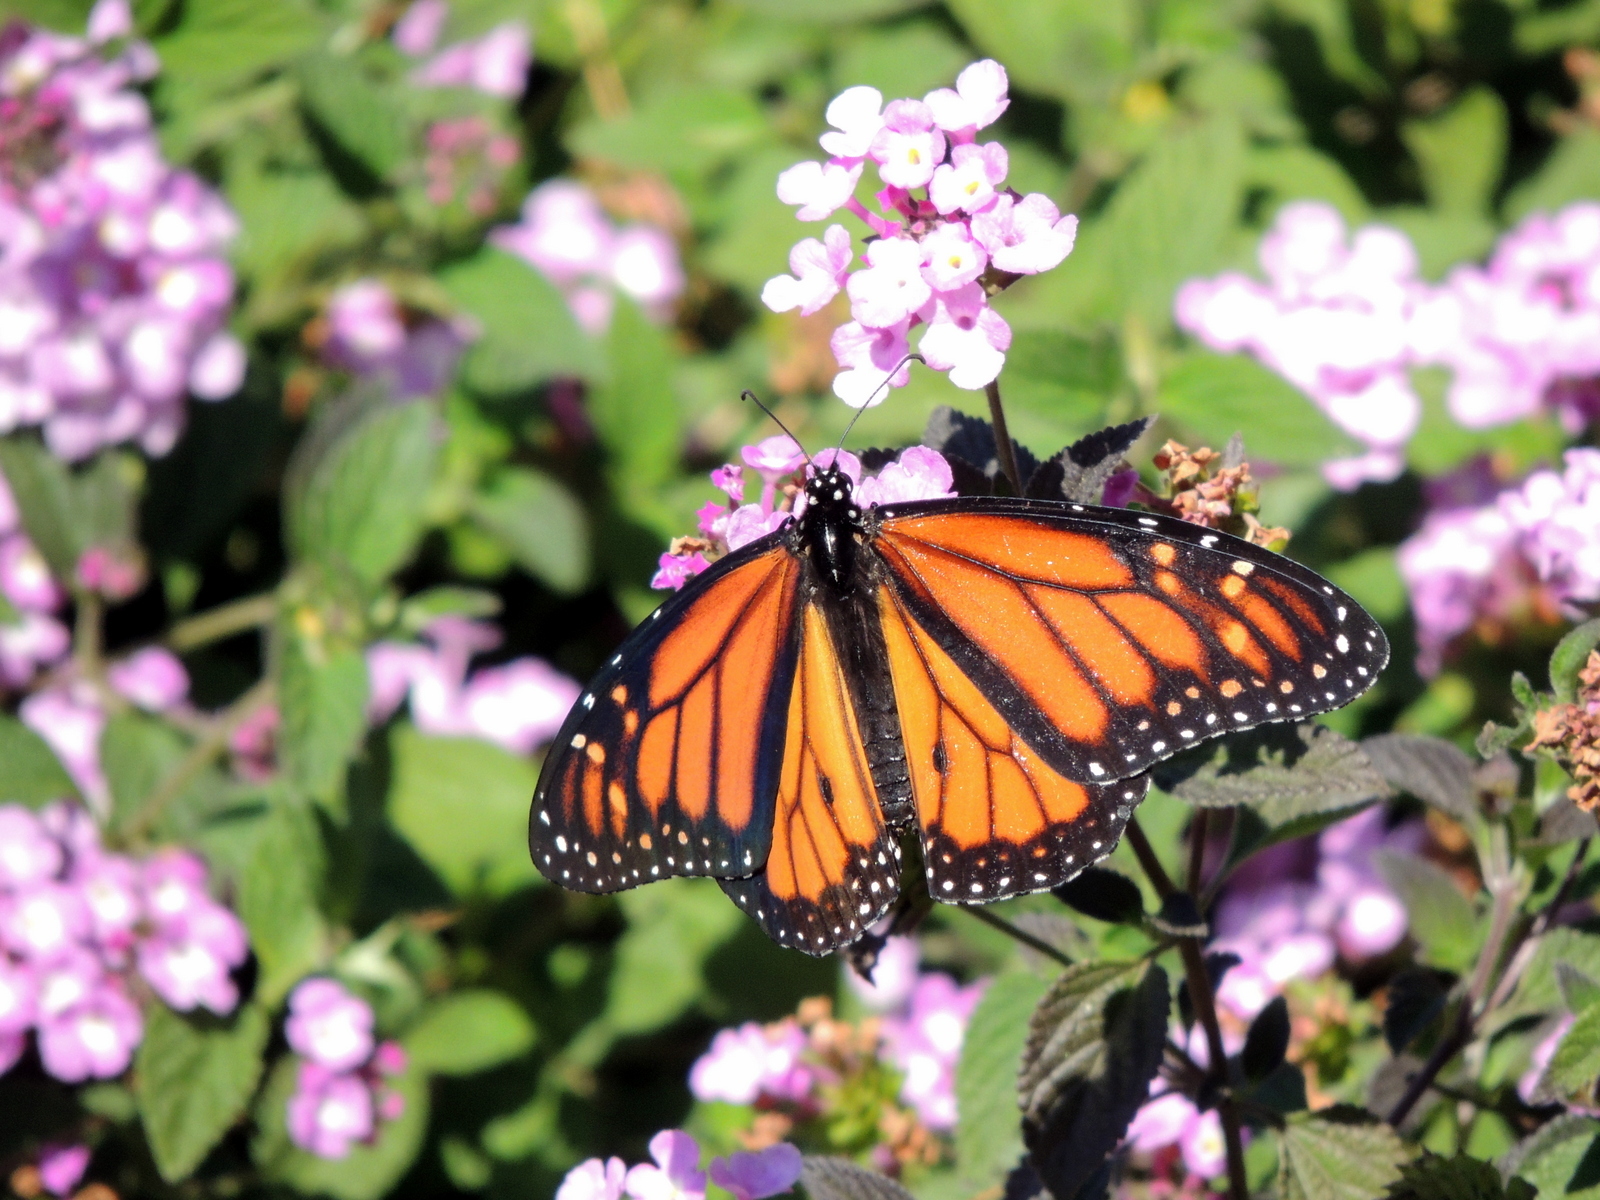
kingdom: Animalia
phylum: Arthropoda
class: Insecta
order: Lepidoptera
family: Nymphalidae
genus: Danaus
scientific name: Danaus plexippus
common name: Monarch
